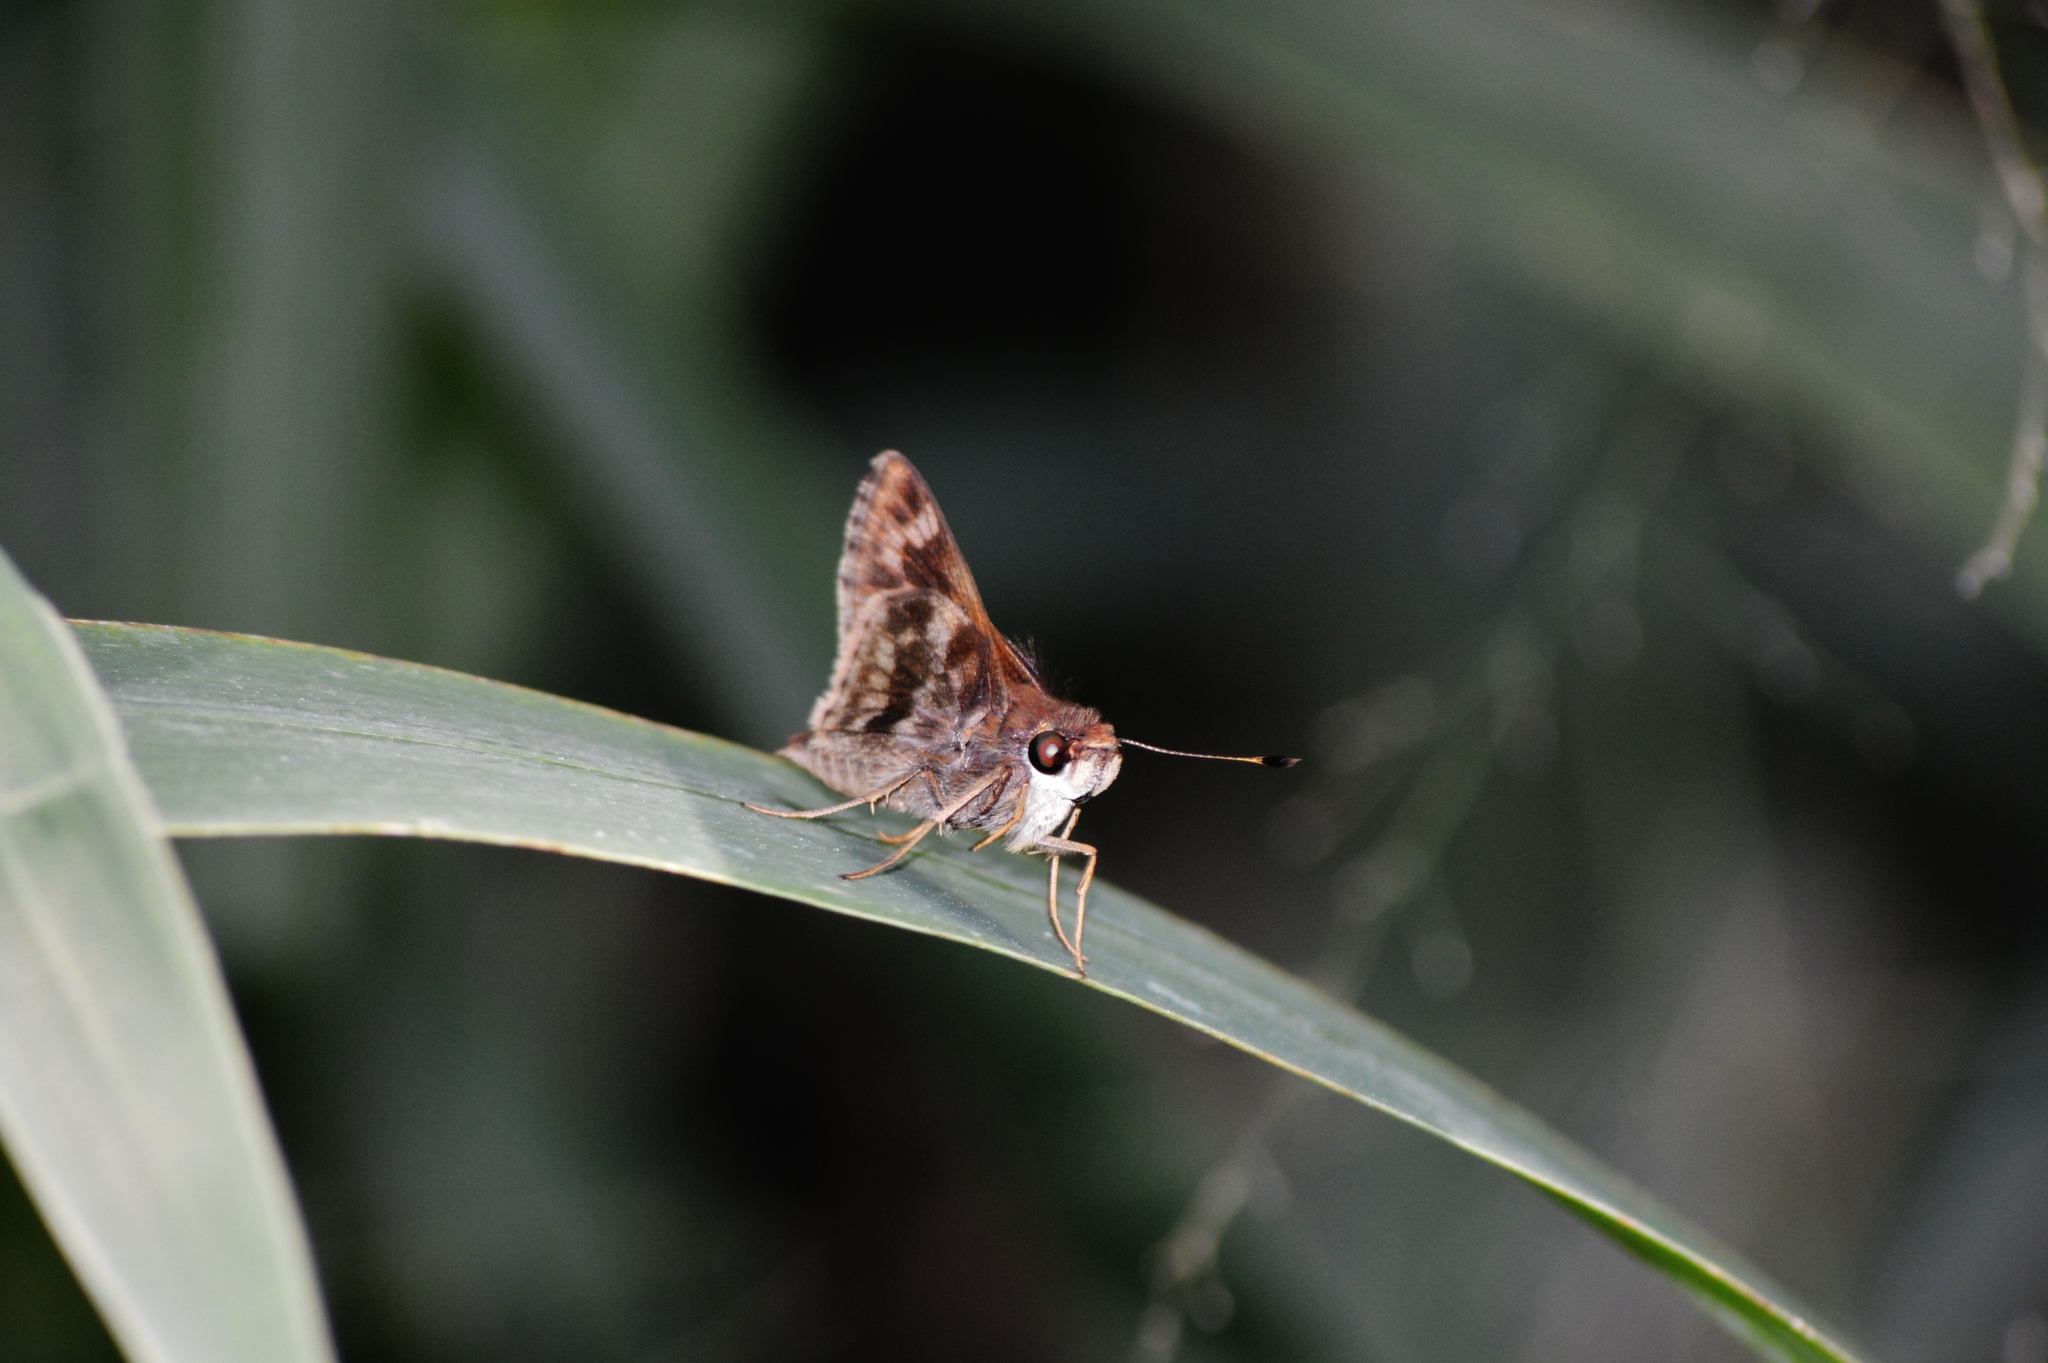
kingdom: Animalia
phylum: Arthropoda
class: Insecta
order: Lepidoptera
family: Hesperiidae
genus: Pompeius
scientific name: Pompeius pompeius
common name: Pompeius skipper
